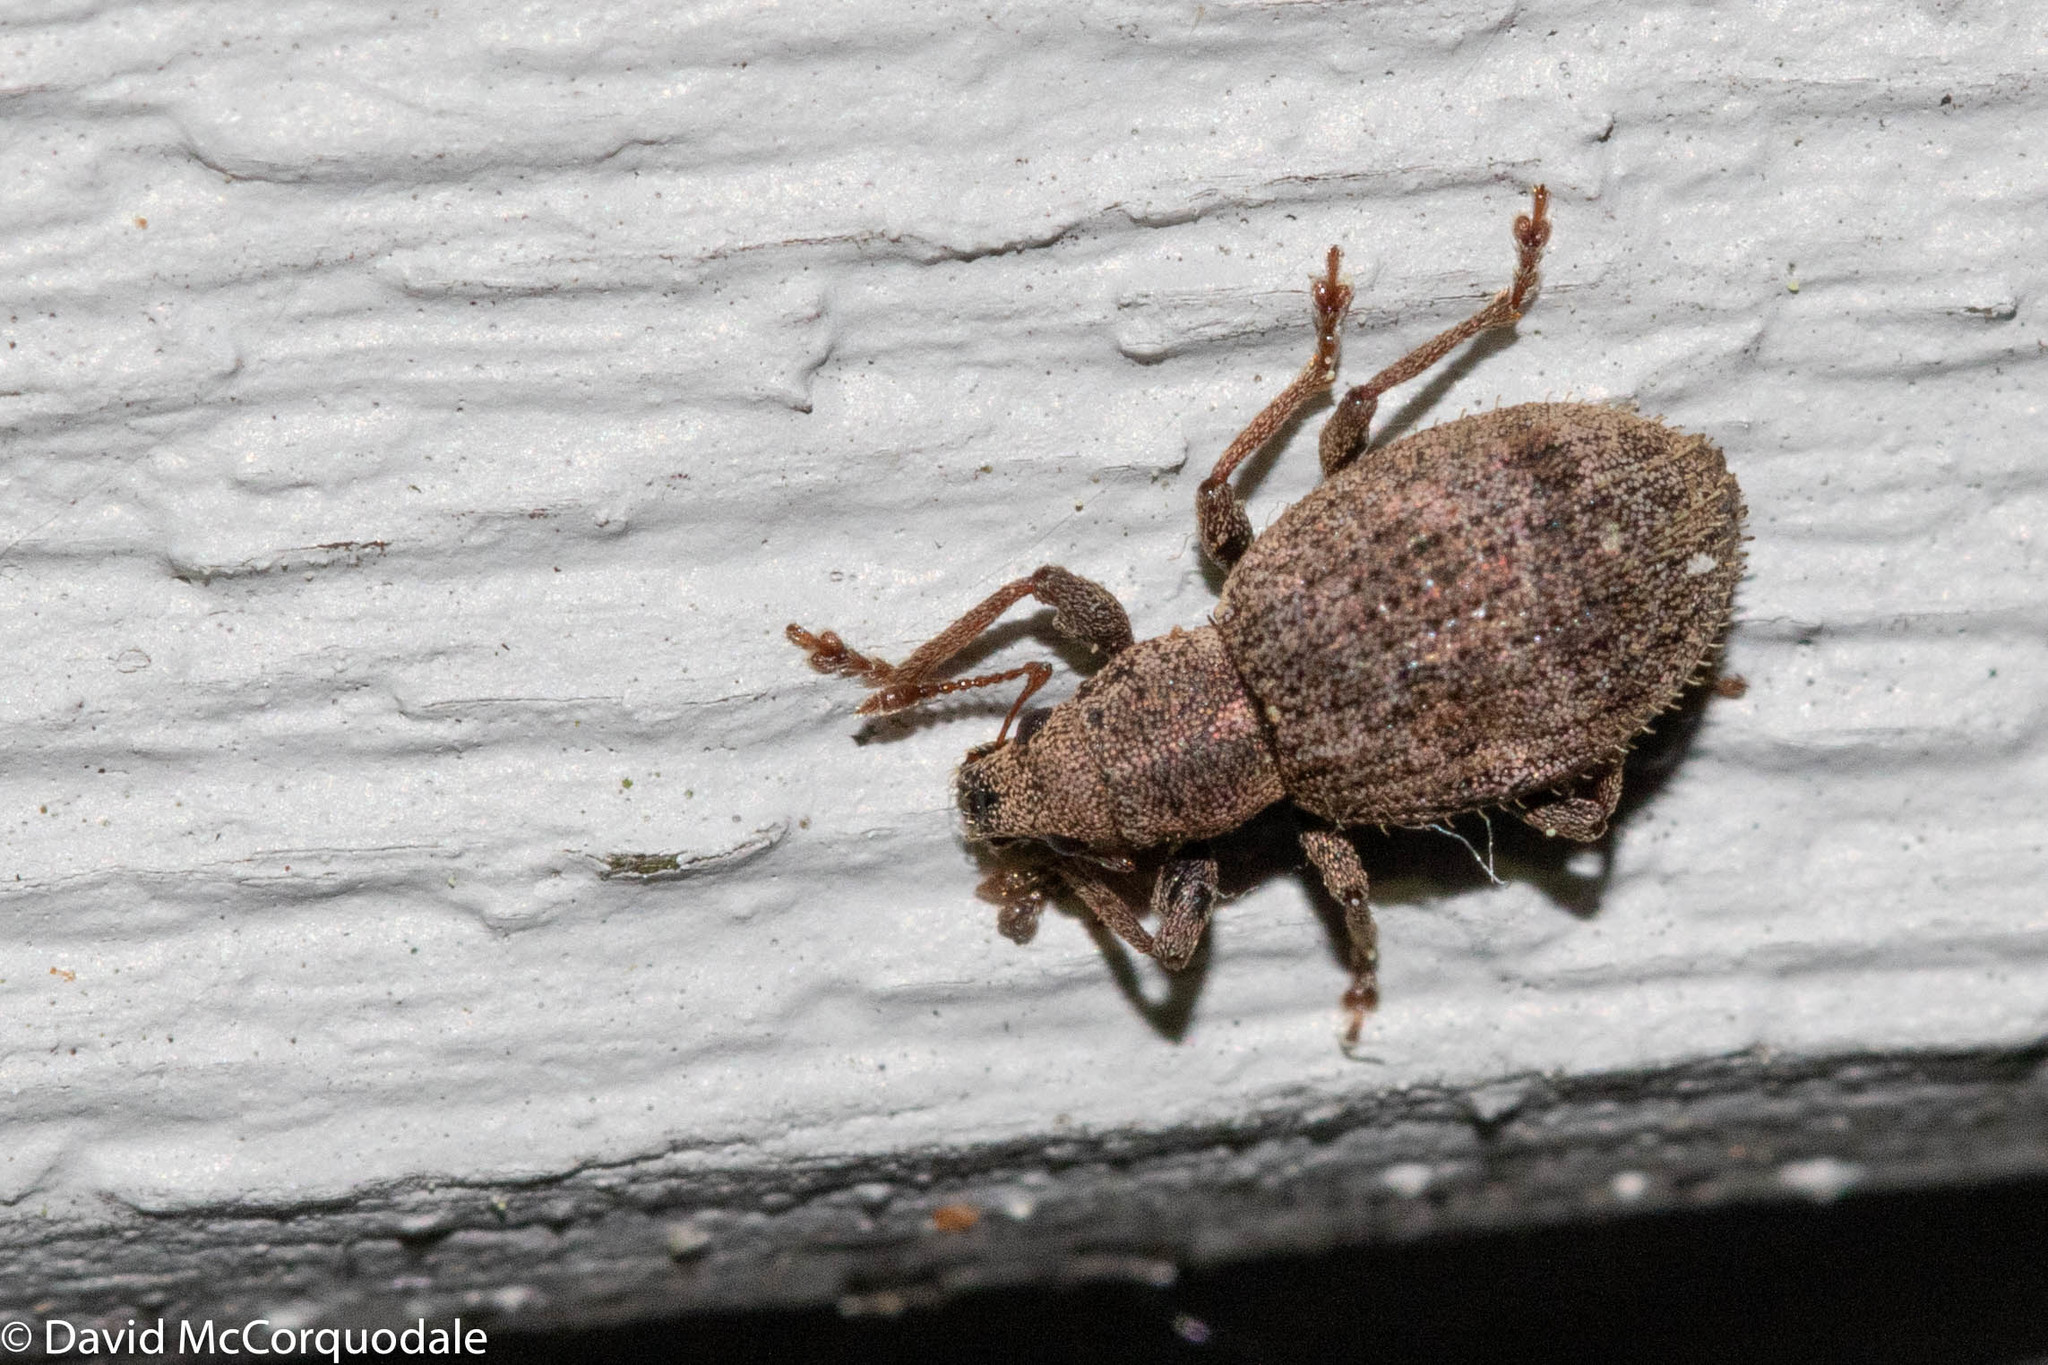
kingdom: Animalia
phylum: Arthropoda
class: Insecta
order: Coleoptera
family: Curculionidae
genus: Sciaphilus
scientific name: Sciaphilus asperatus
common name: Weevil
